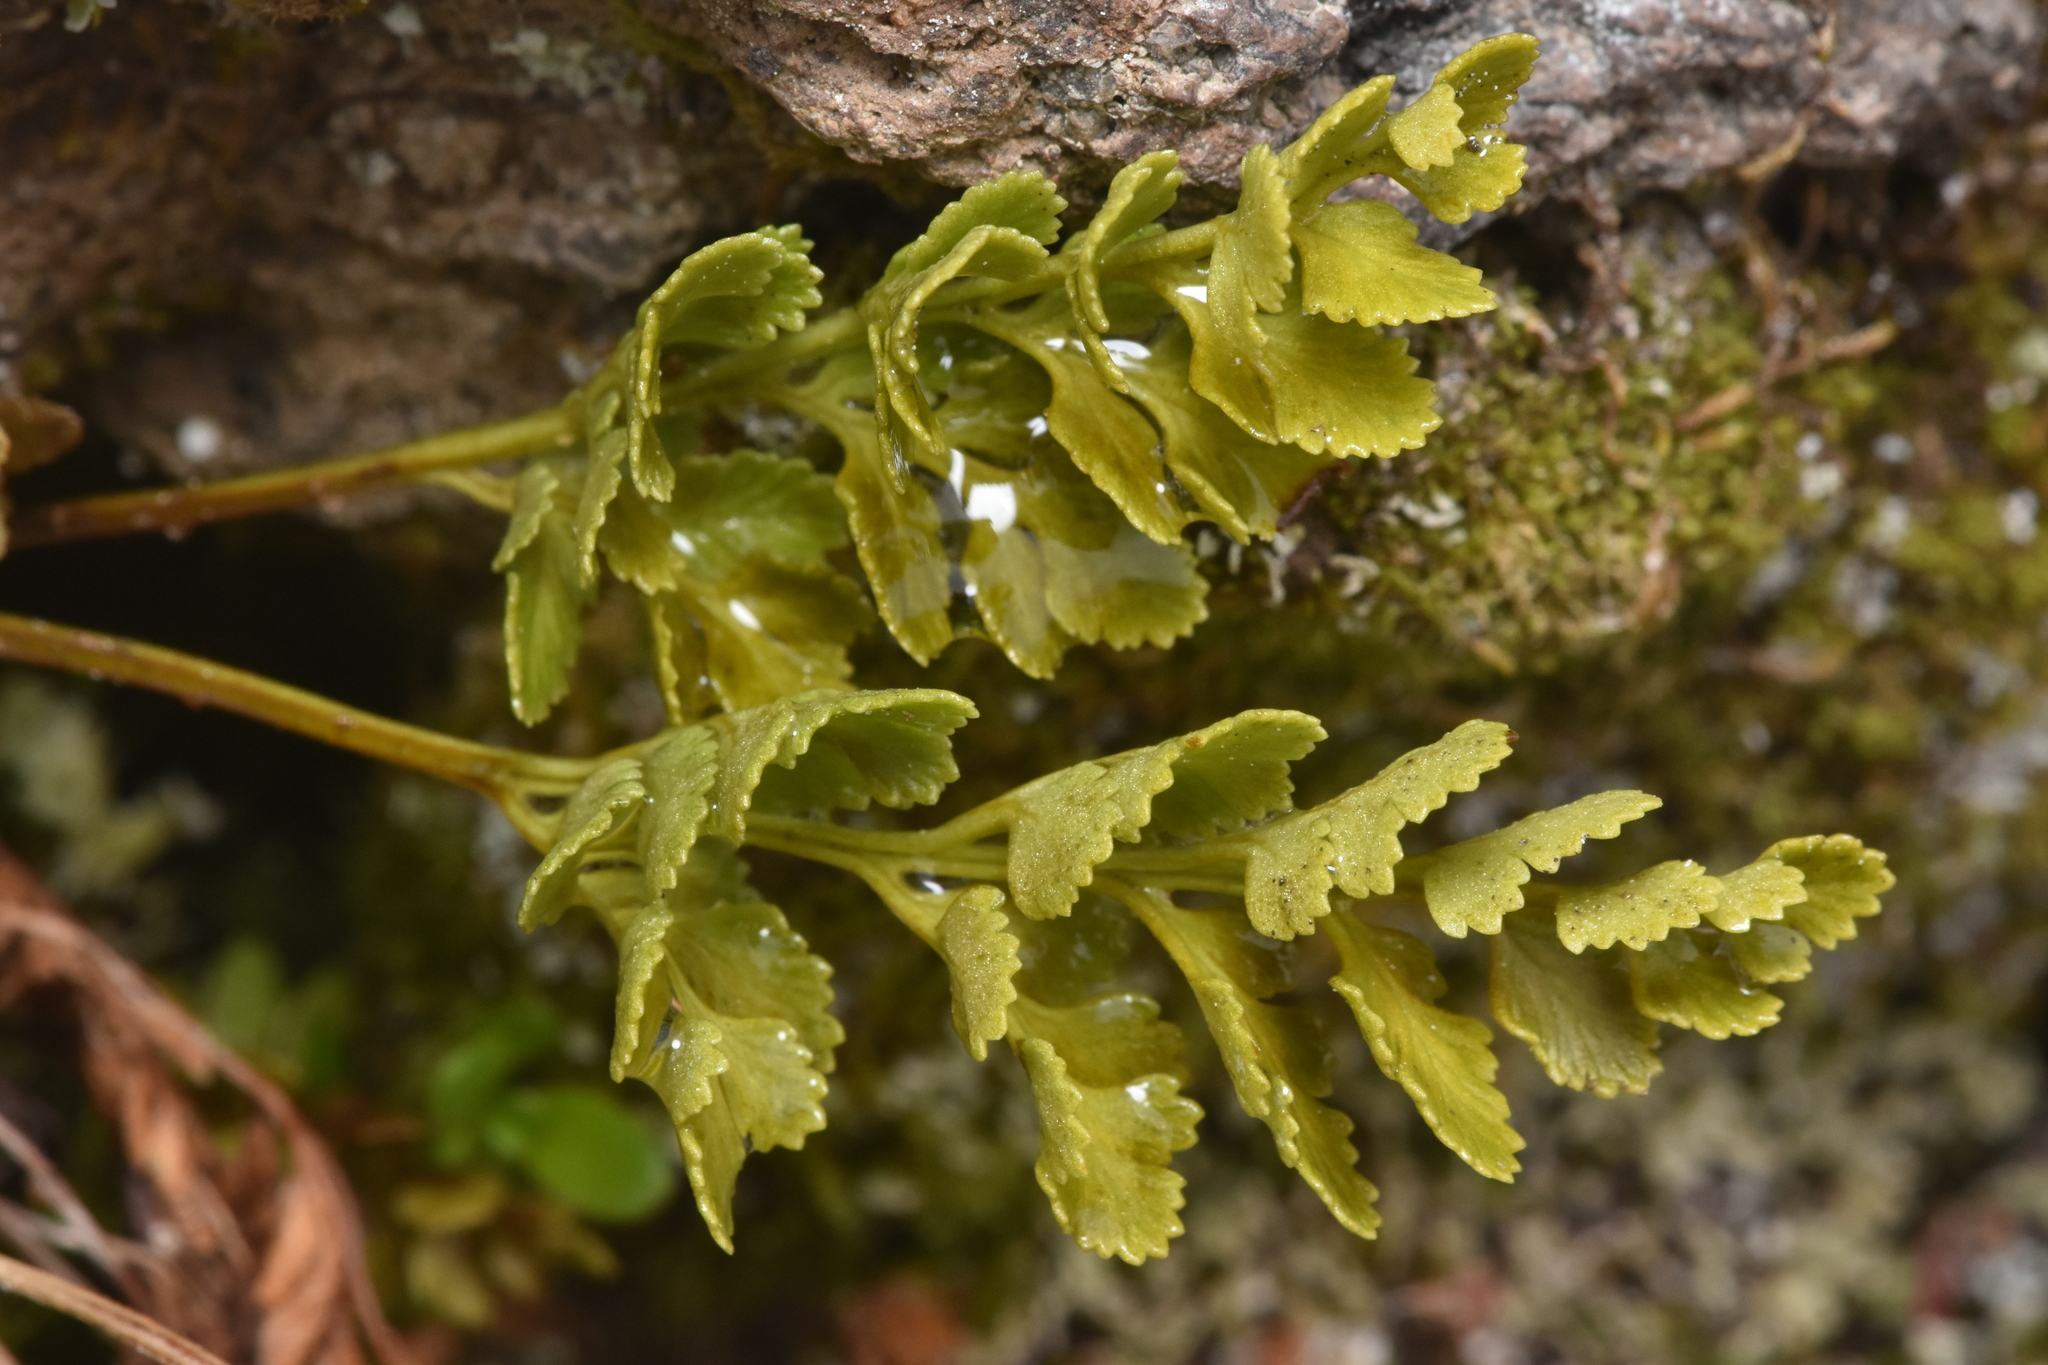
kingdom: Plantae
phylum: Tracheophyta
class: Polypodiopsida
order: Polypodiales
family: Pteridaceae
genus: Cryptogramma
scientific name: Cryptogramma acrostichoides
